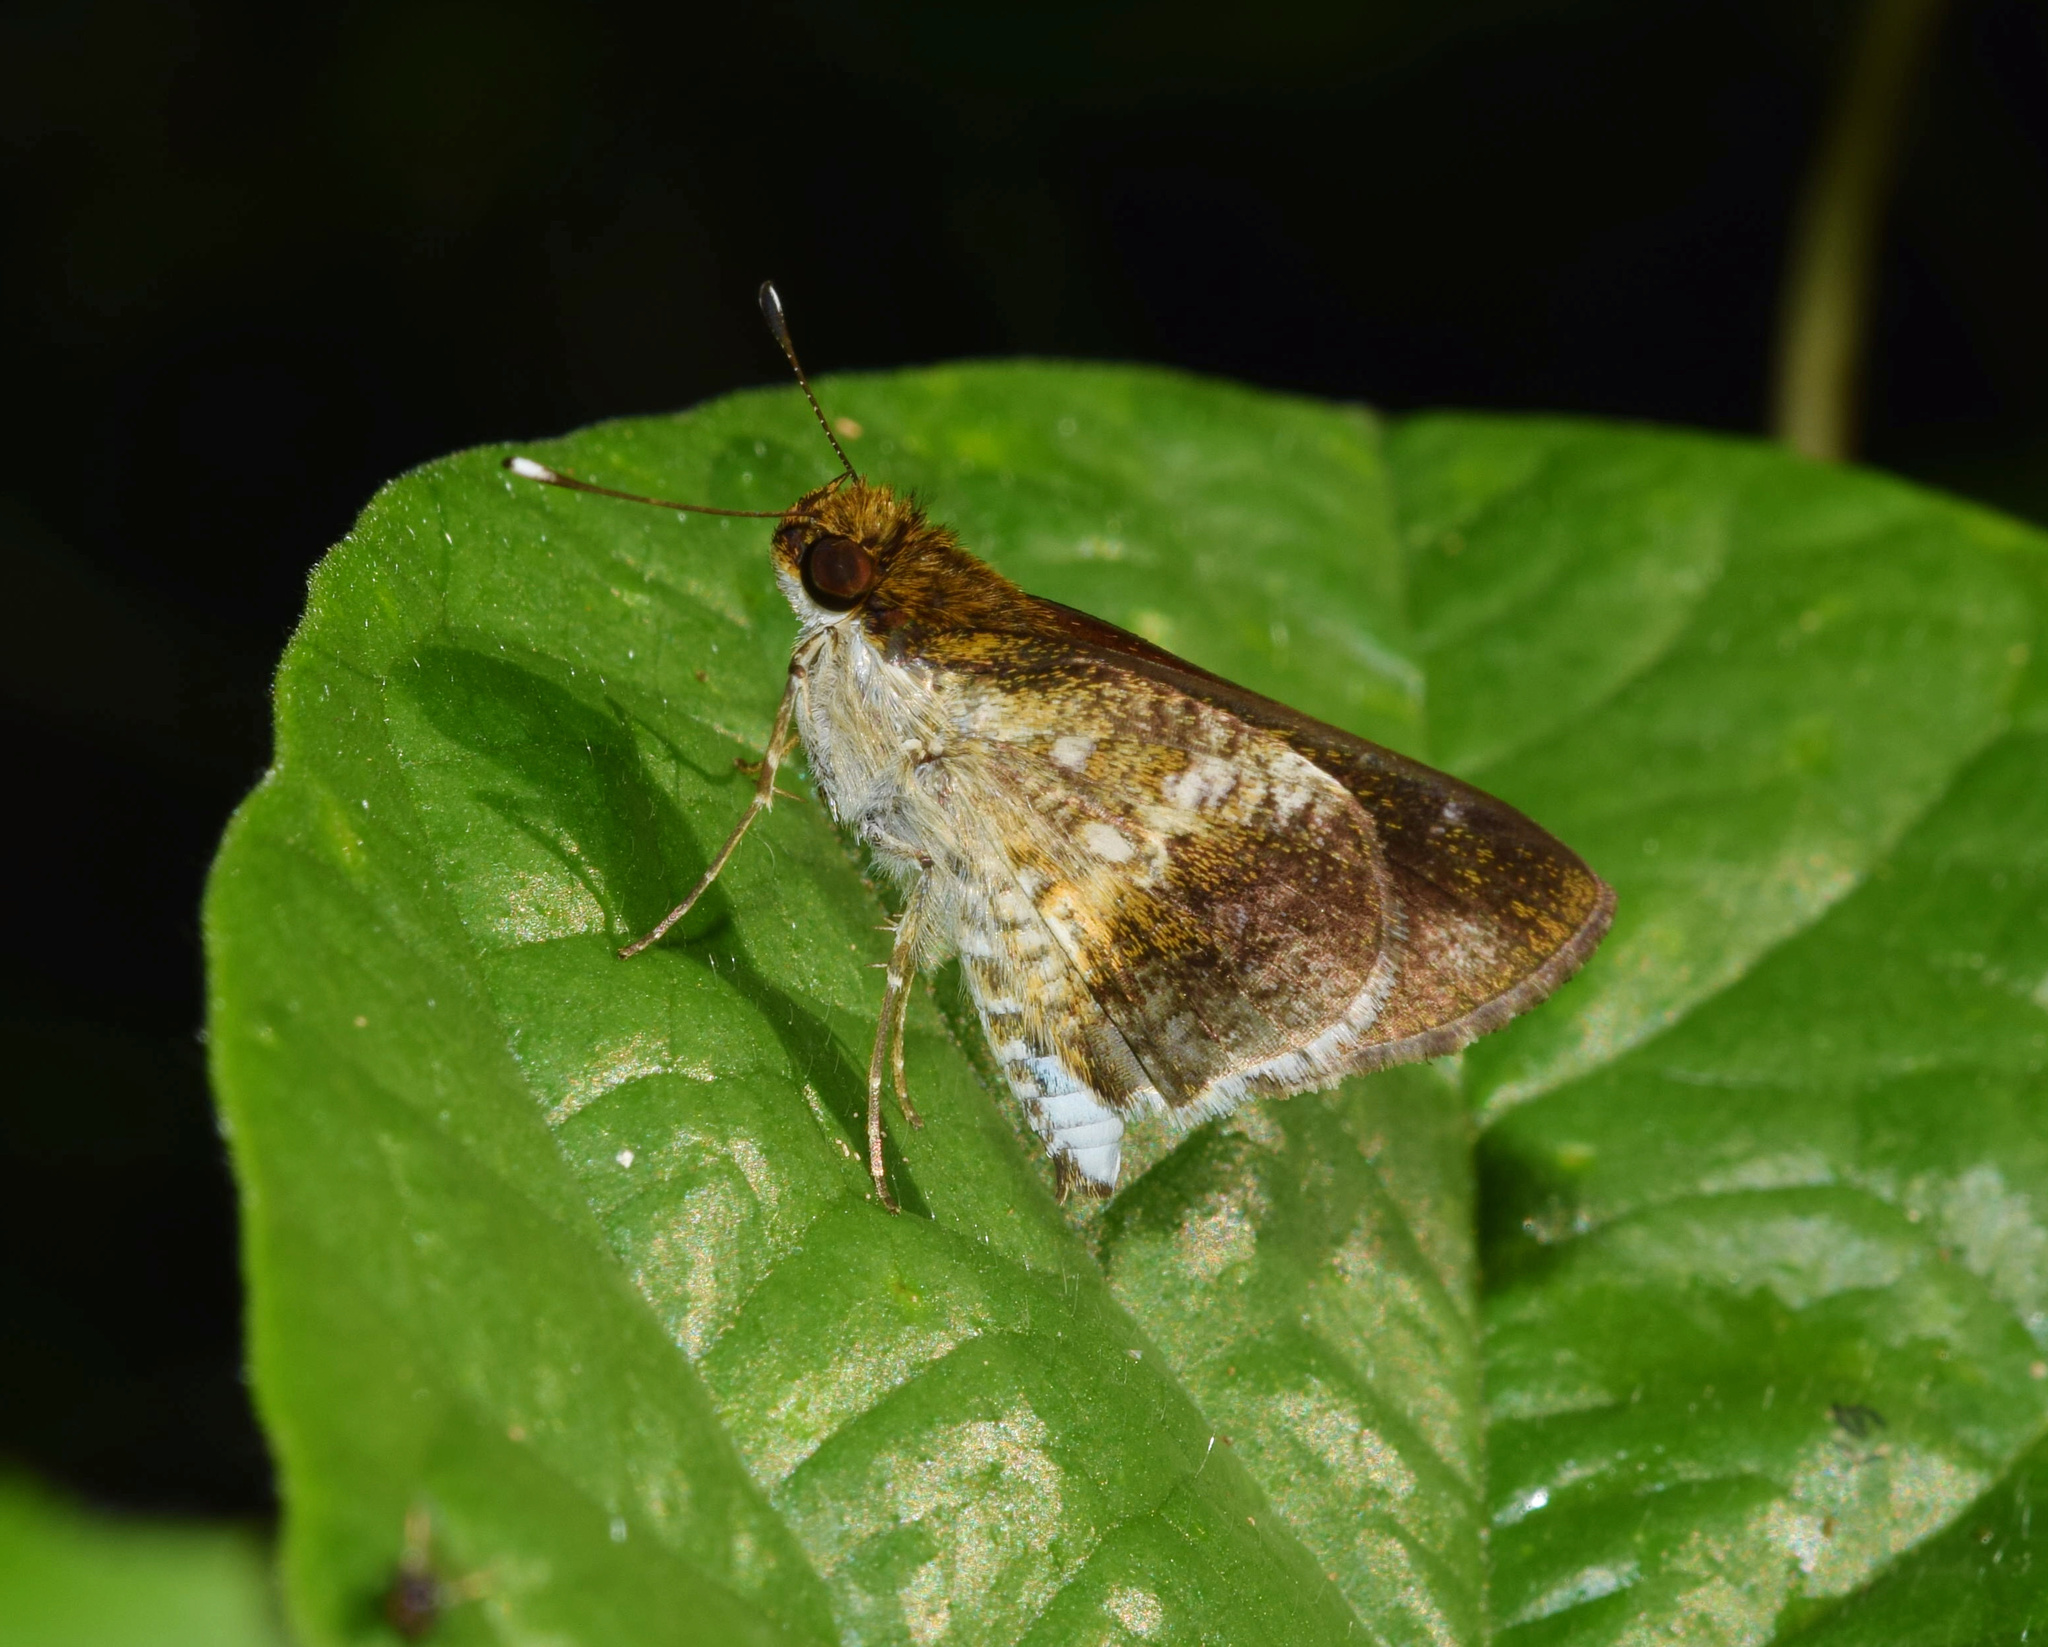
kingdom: Animalia
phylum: Arthropoda
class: Insecta
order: Lepidoptera
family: Hesperiidae
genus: Acleros
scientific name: Acleros mackenii
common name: Shade dart
